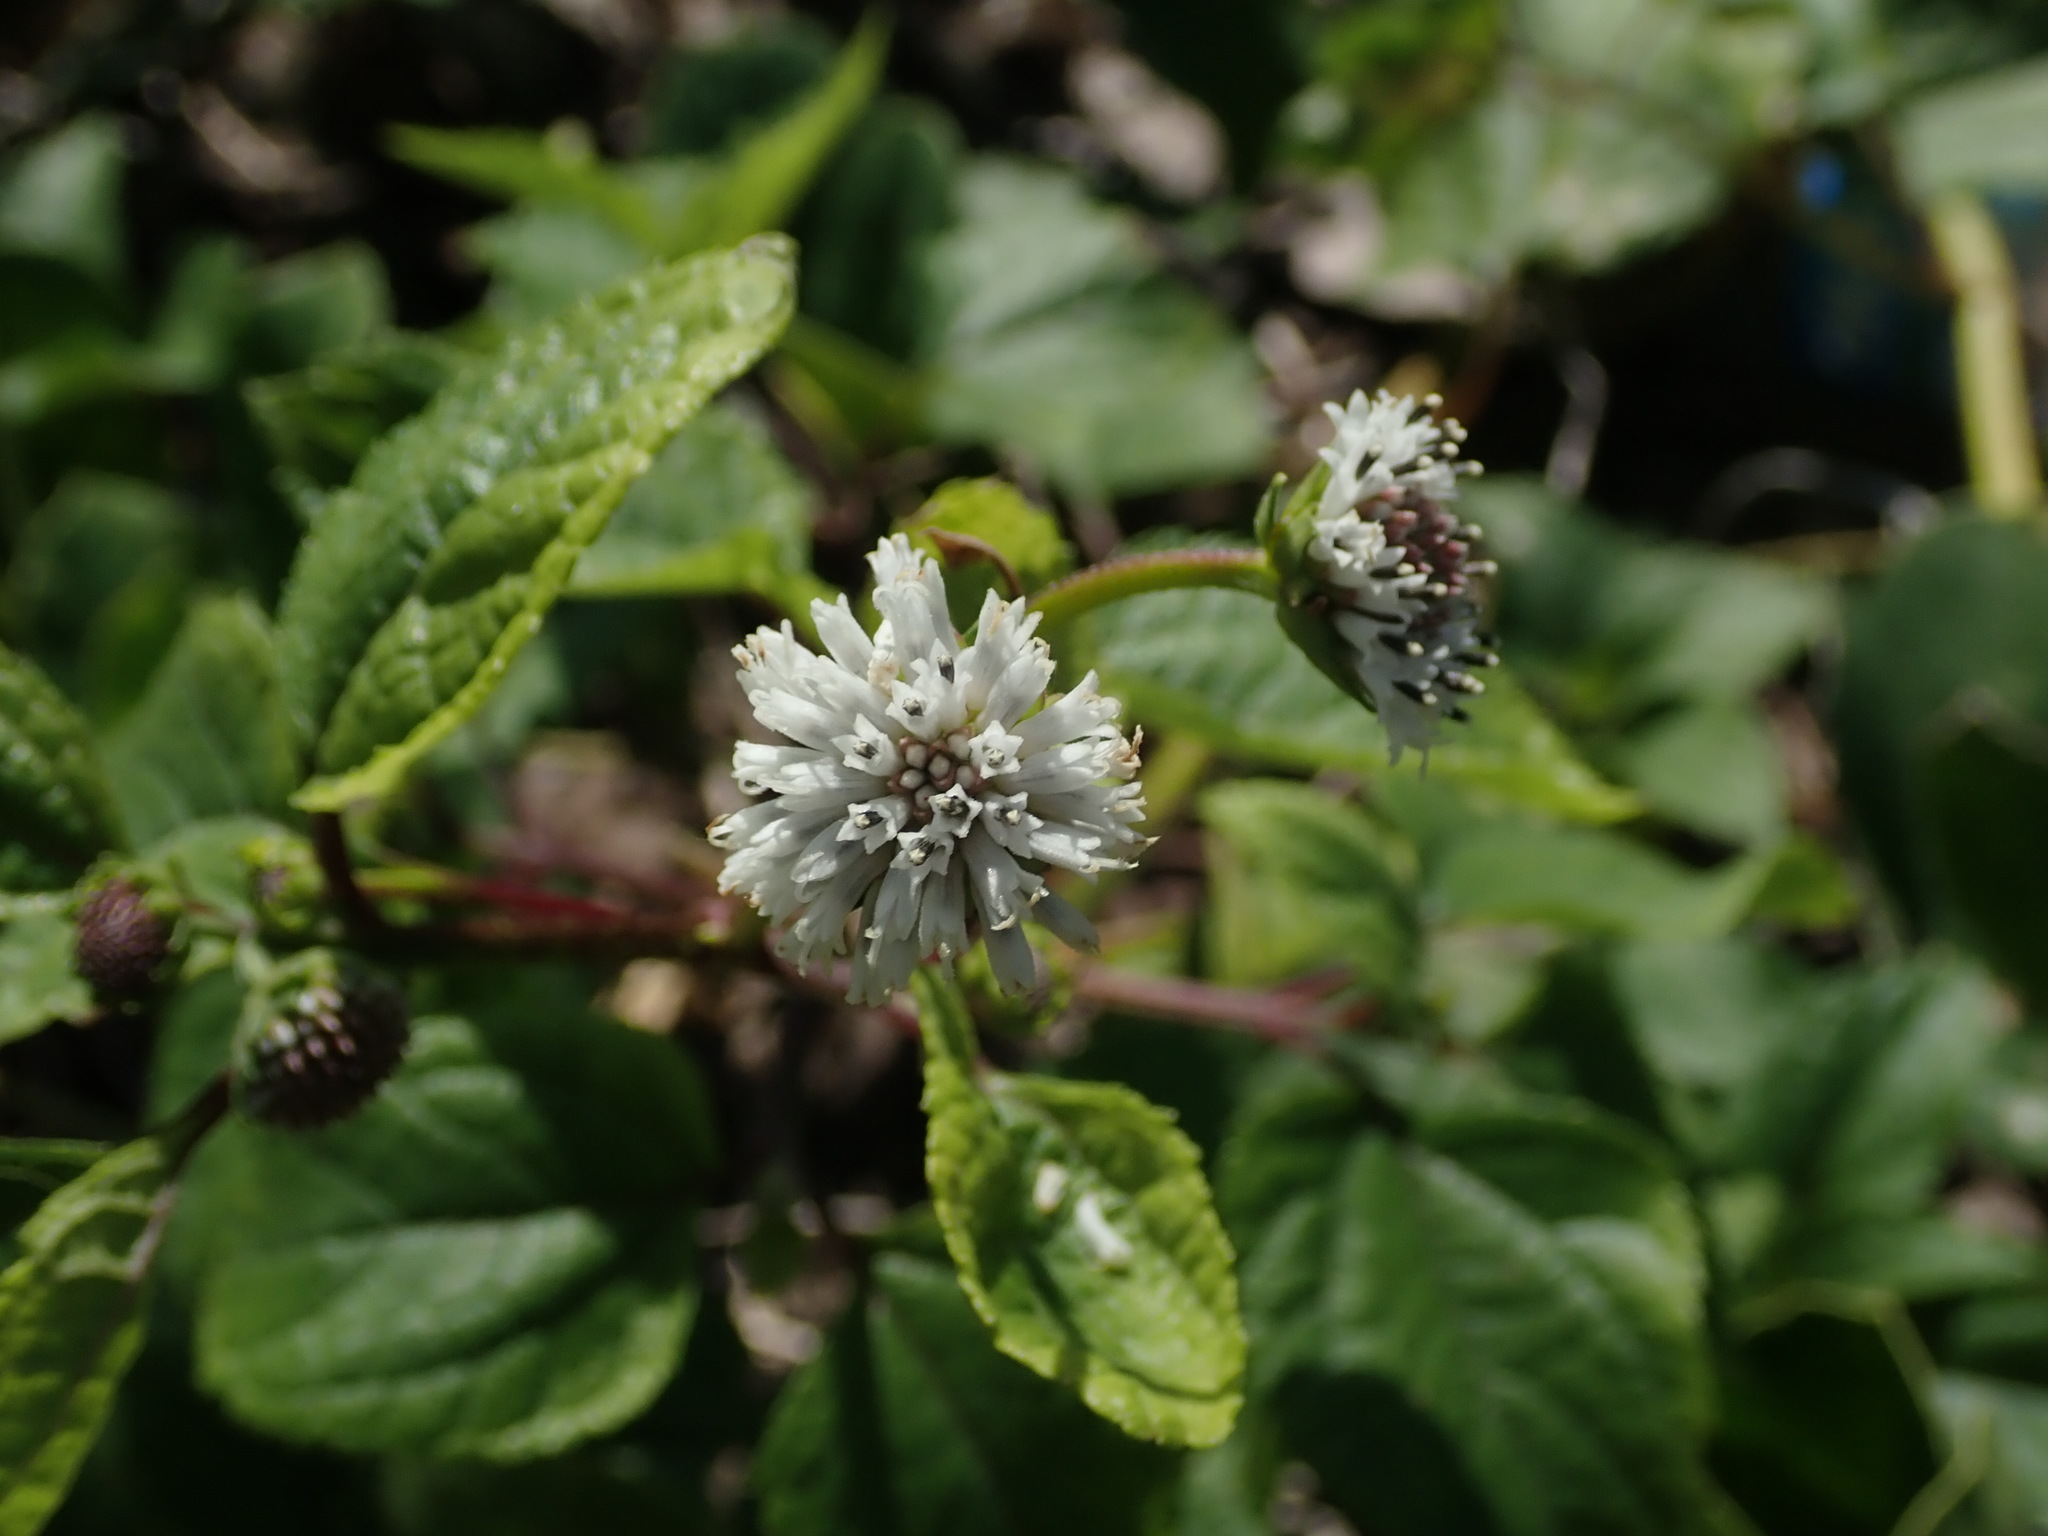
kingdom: Plantae
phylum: Tracheophyta
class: Magnoliopsida
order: Asterales
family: Asteraceae
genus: Melanthera
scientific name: Melanthera nivea
